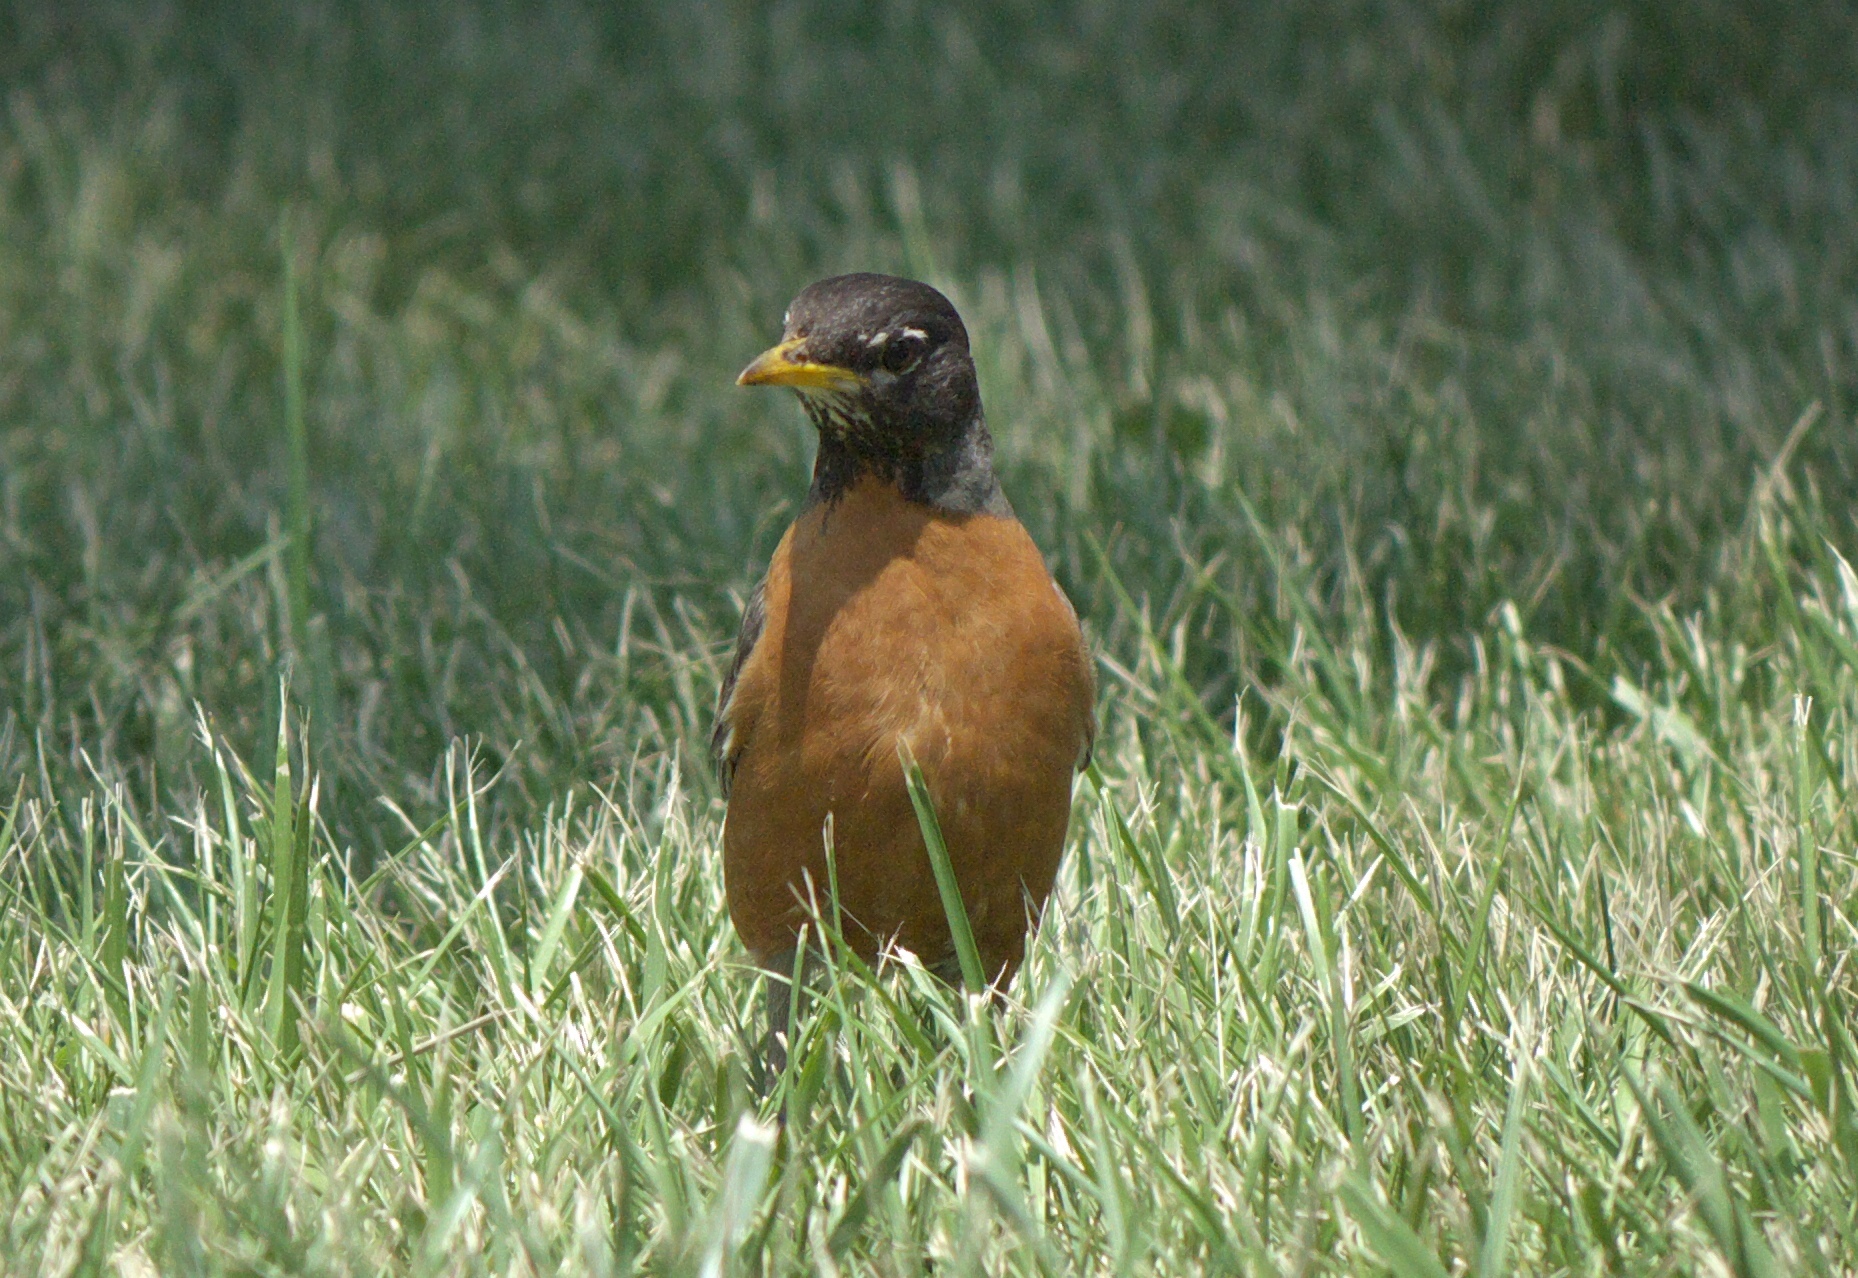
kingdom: Animalia
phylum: Chordata
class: Aves
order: Passeriformes
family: Turdidae
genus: Turdus
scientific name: Turdus migratorius
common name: American robin
